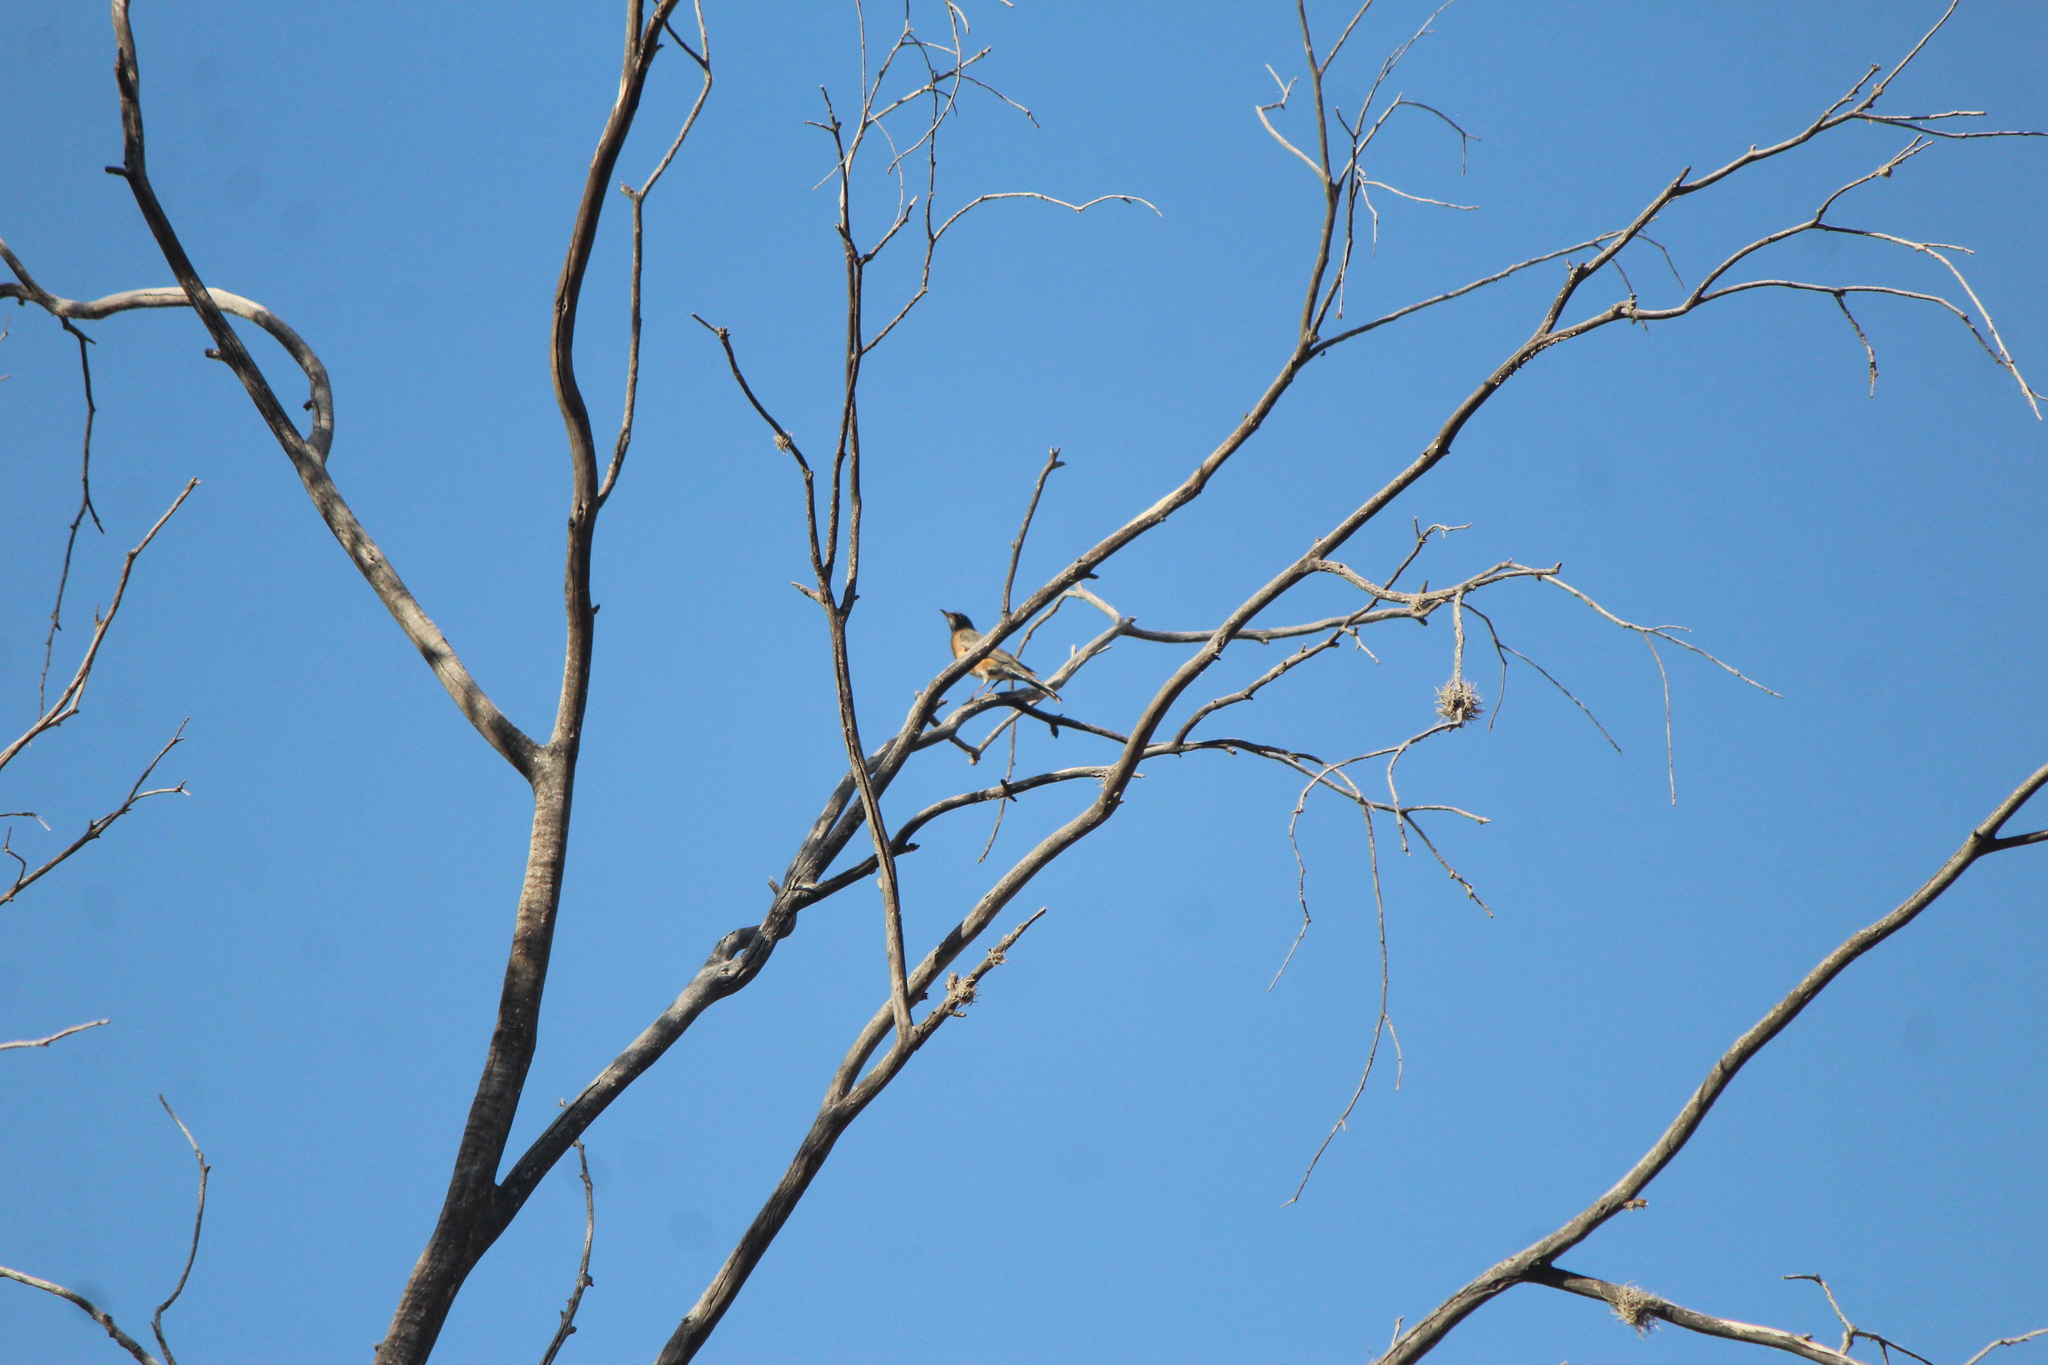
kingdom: Animalia
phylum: Chordata
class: Aves
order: Passeriformes
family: Turdidae
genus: Turdus
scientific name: Turdus migratorius
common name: American robin
